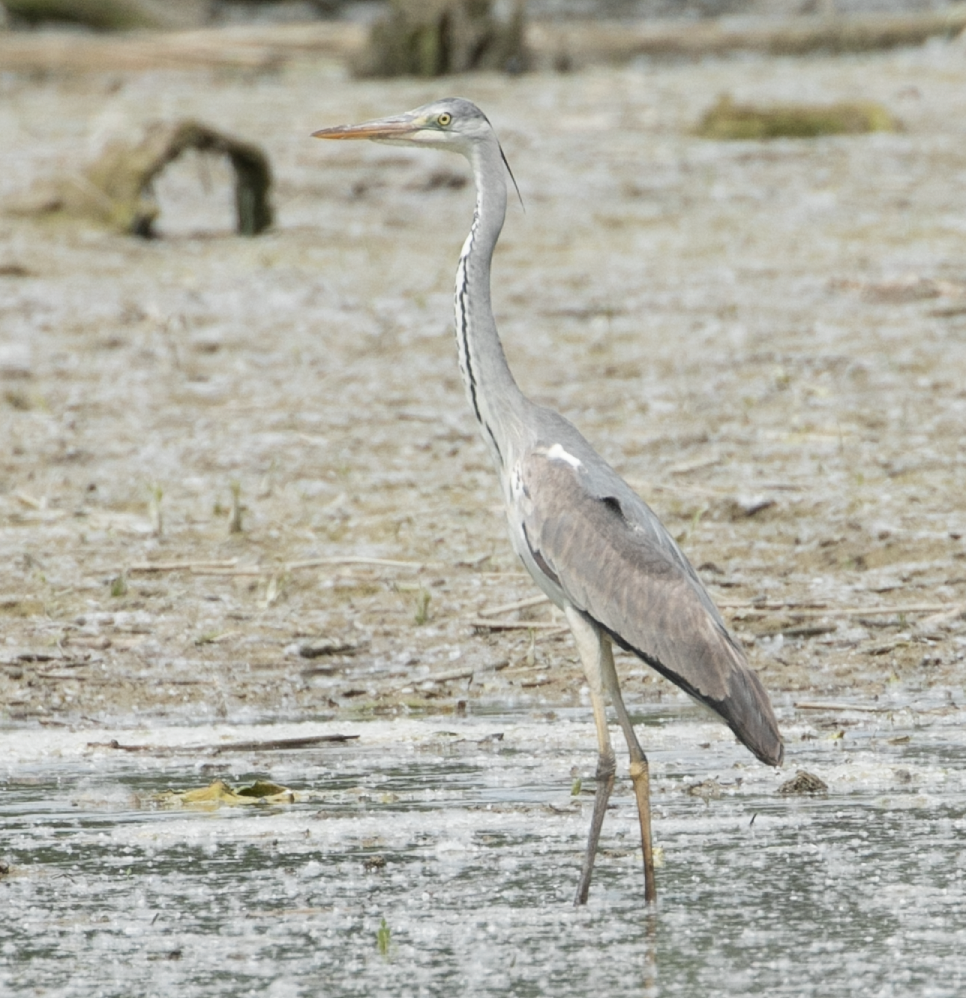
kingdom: Animalia
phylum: Chordata
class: Aves
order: Pelecaniformes
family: Ardeidae
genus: Ardea
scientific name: Ardea cinerea
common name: Grey heron
